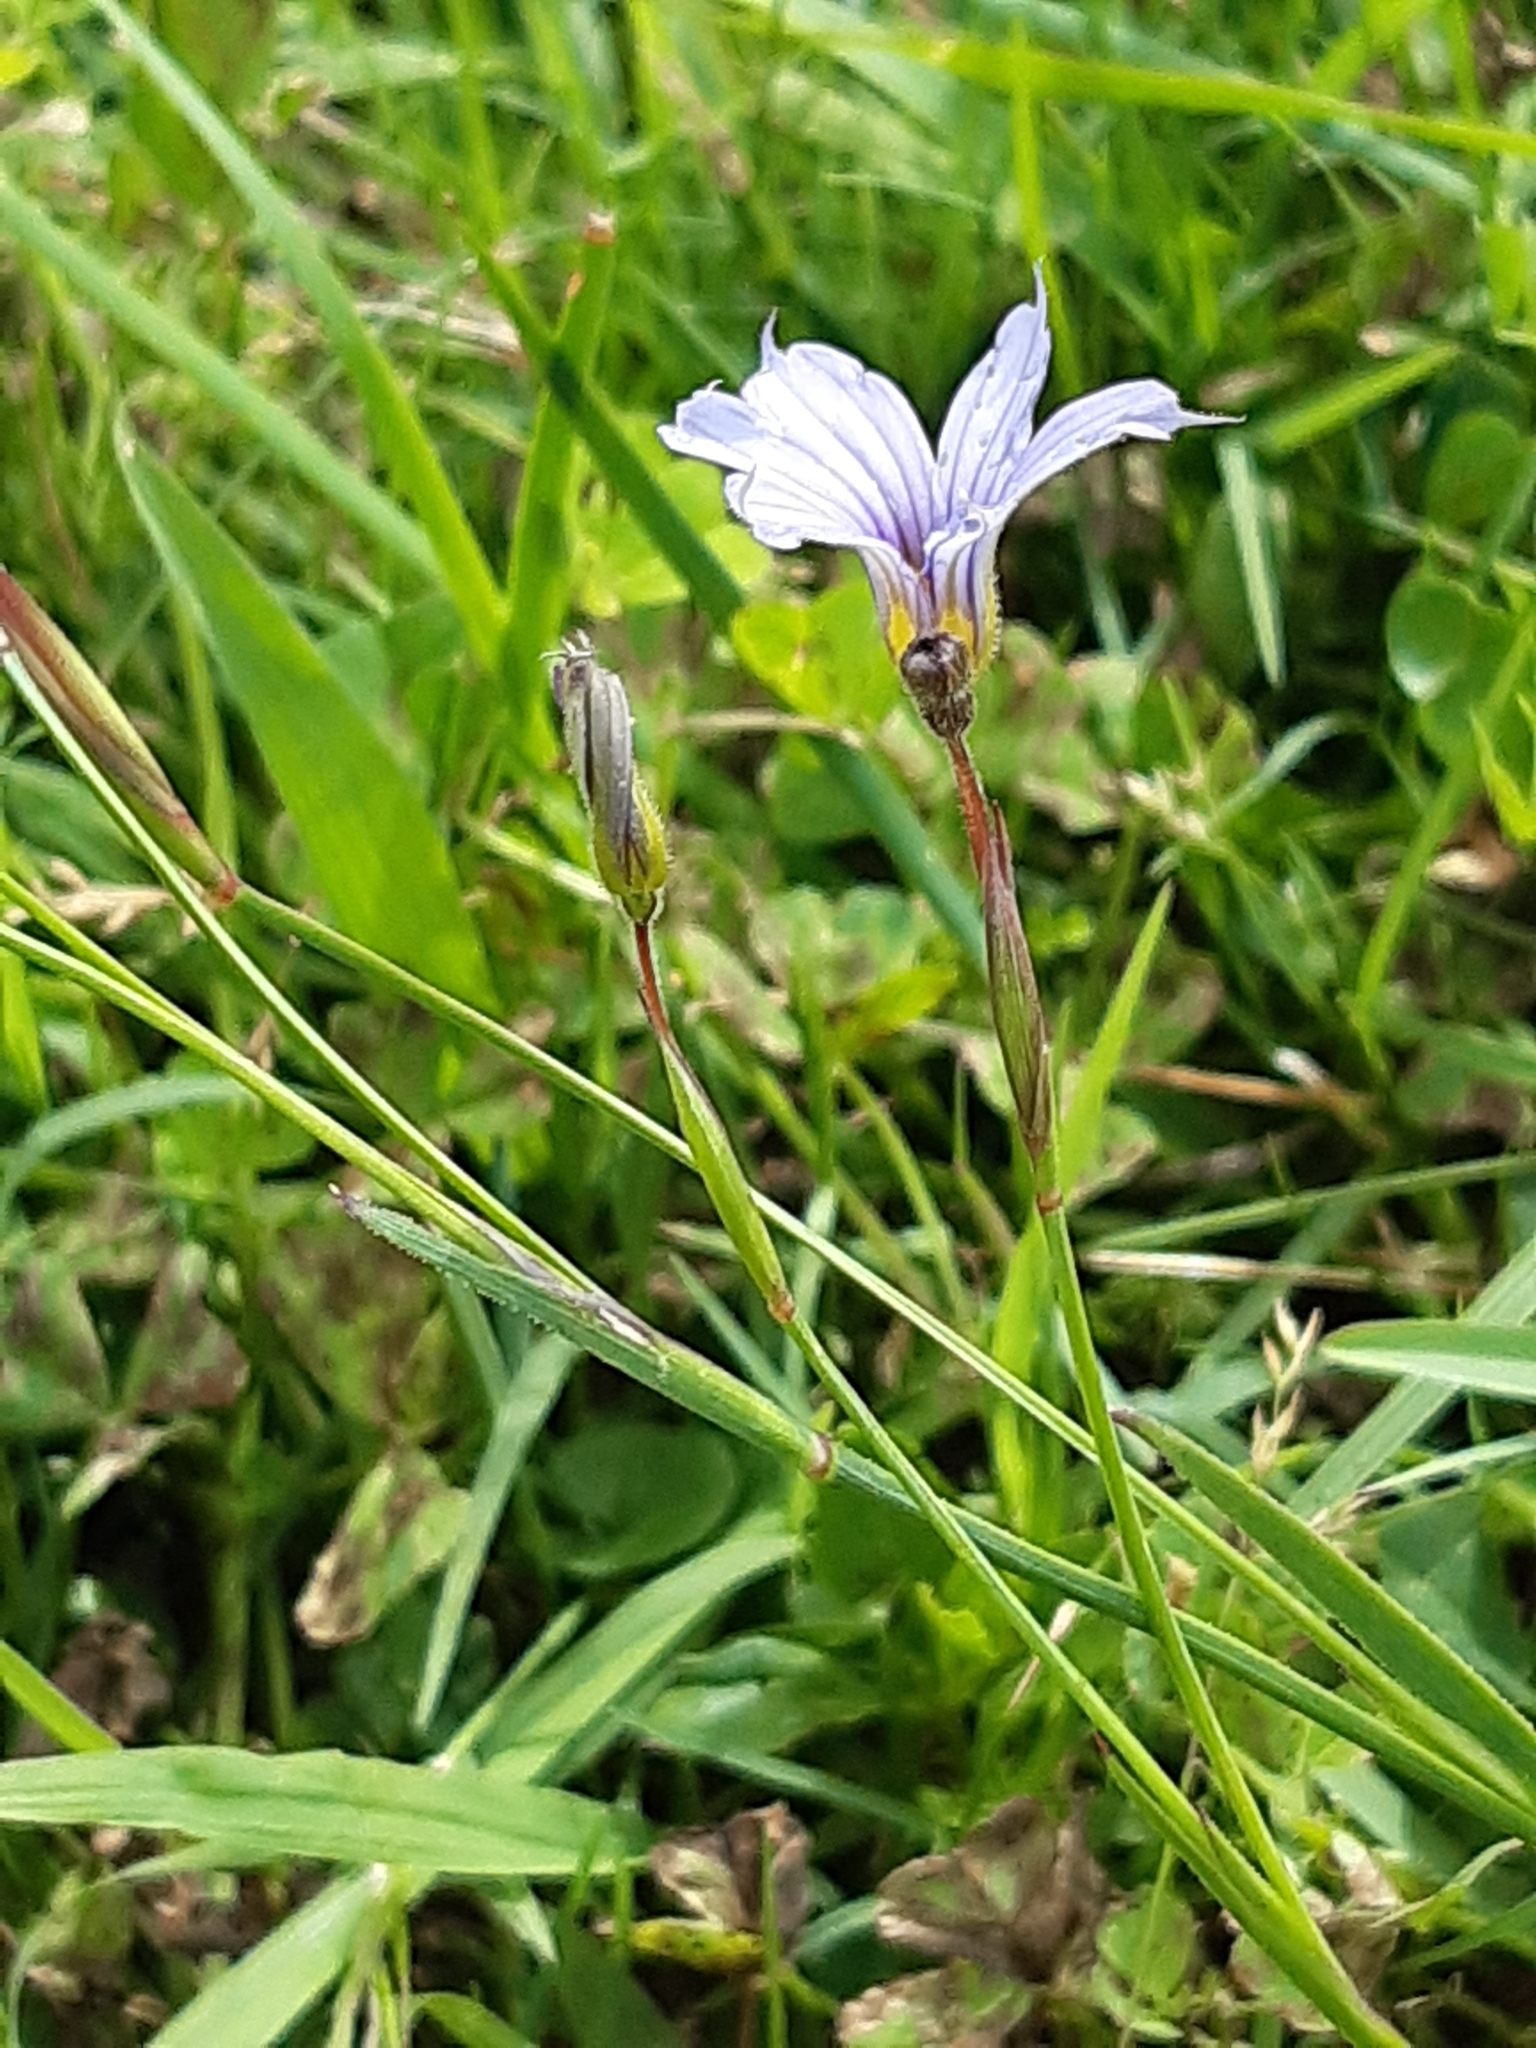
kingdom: Plantae
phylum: Tracheophyta
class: Liliopsida
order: Asparagales
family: Iridaceae
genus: Sisyrinchium
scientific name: Sisyrinchium platense
